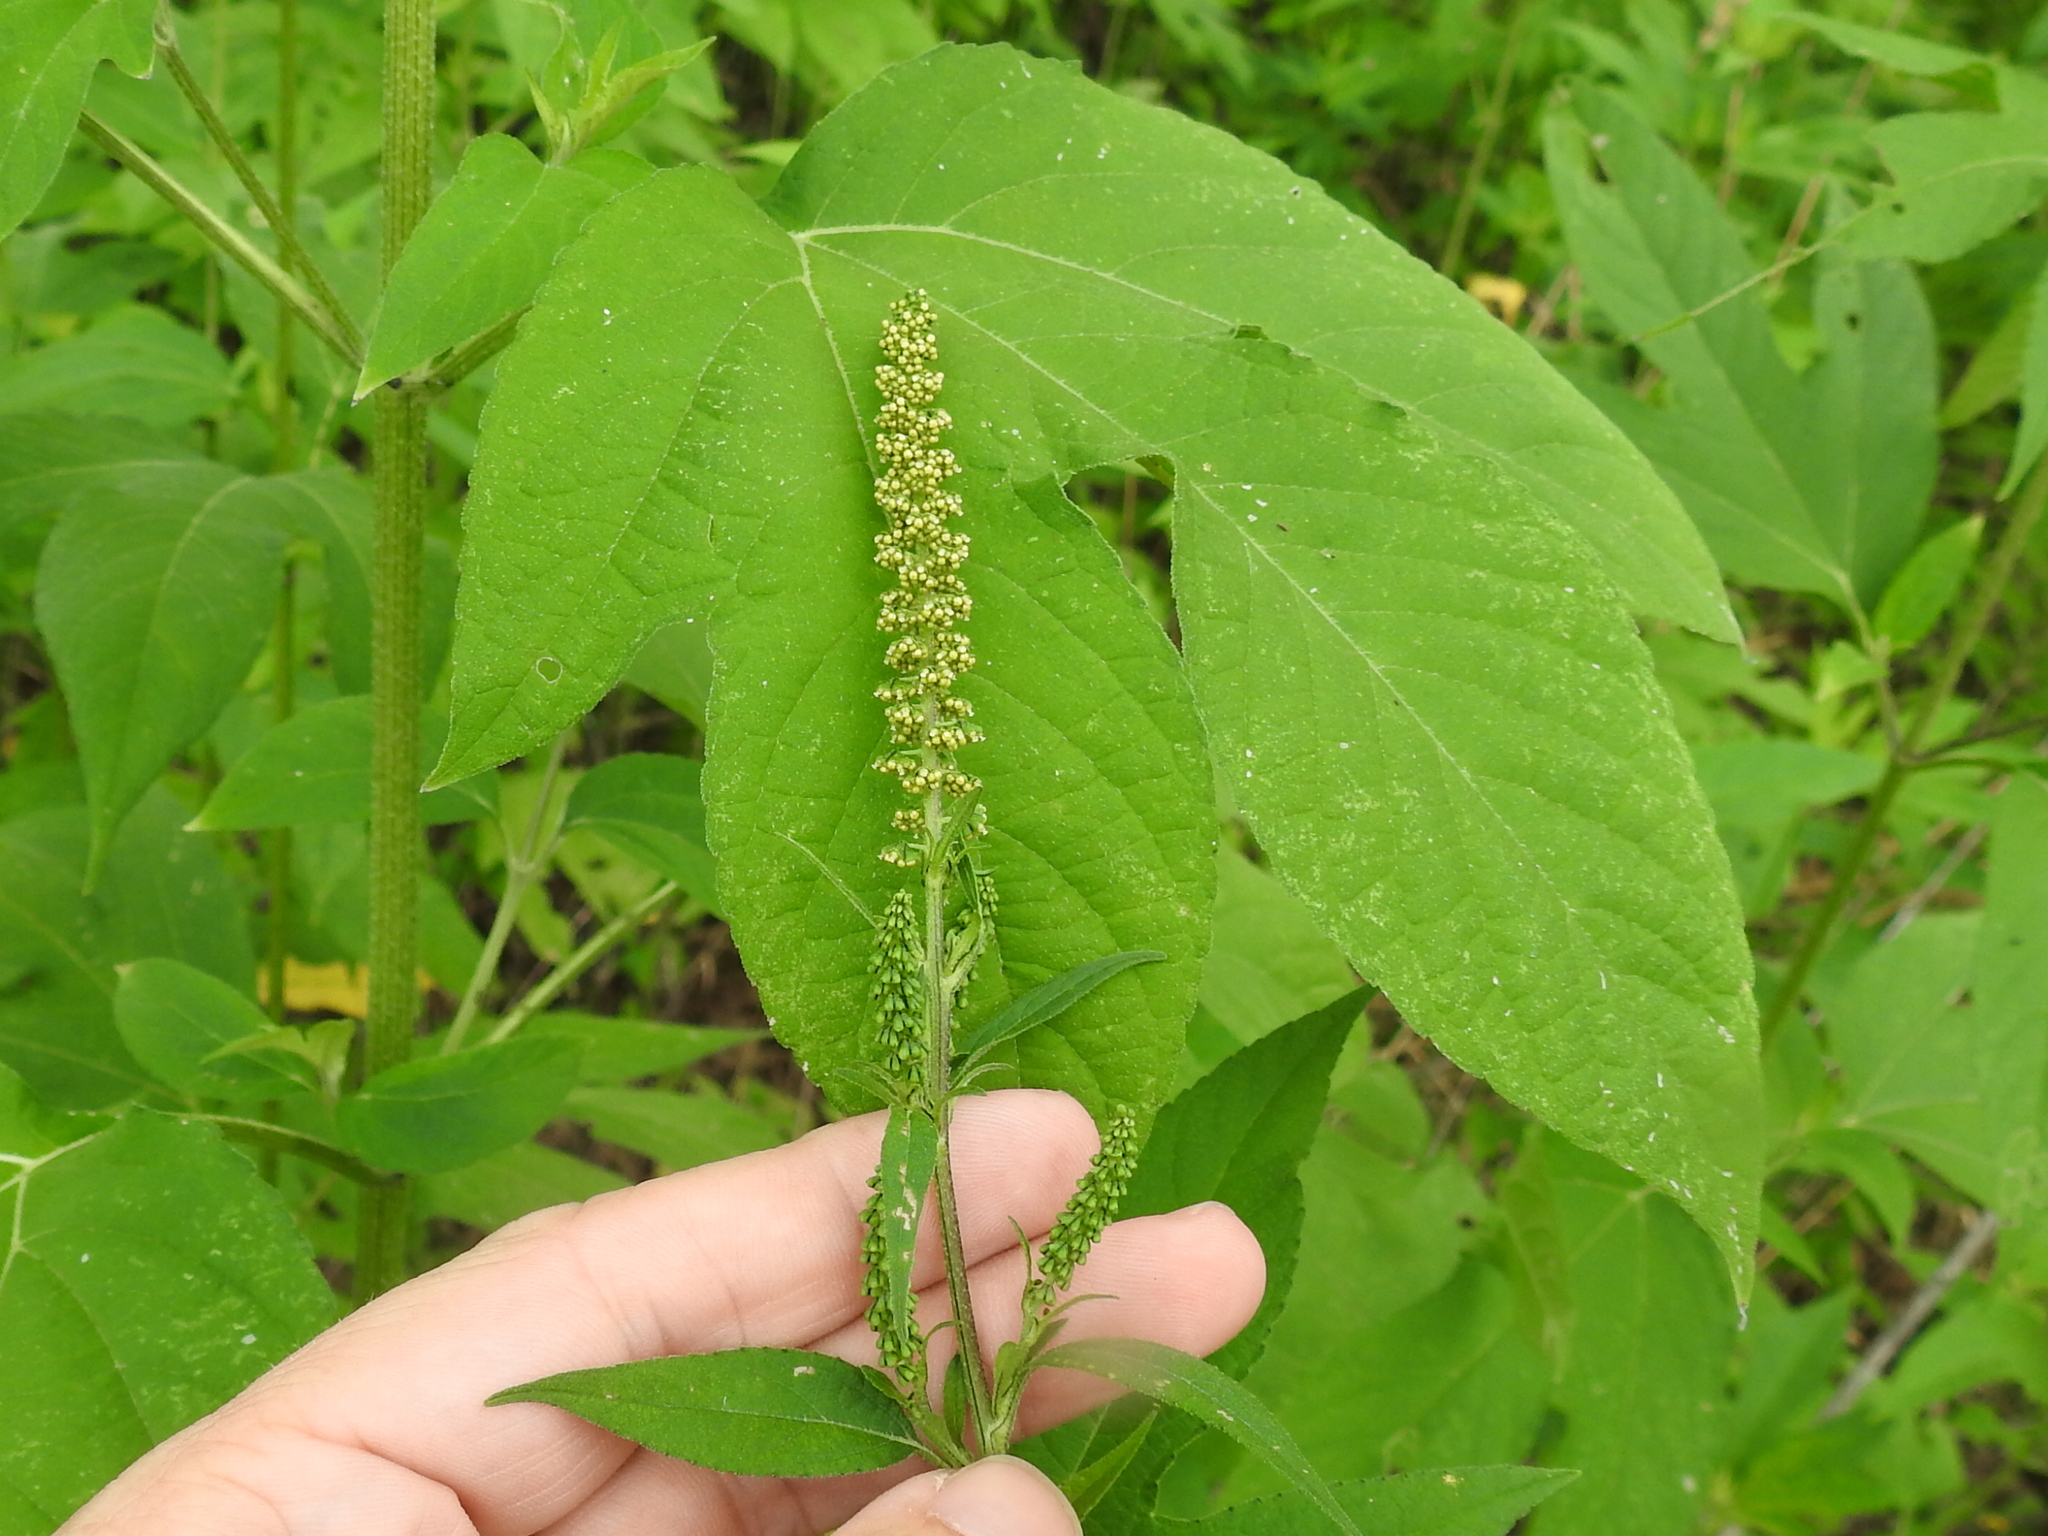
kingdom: Plantae
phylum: Tracheophyta
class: Magnoliopsida
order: Asterales
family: Asteraceae
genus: Ambrosia
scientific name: Ambrosia trifida
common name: Giant ragweed
